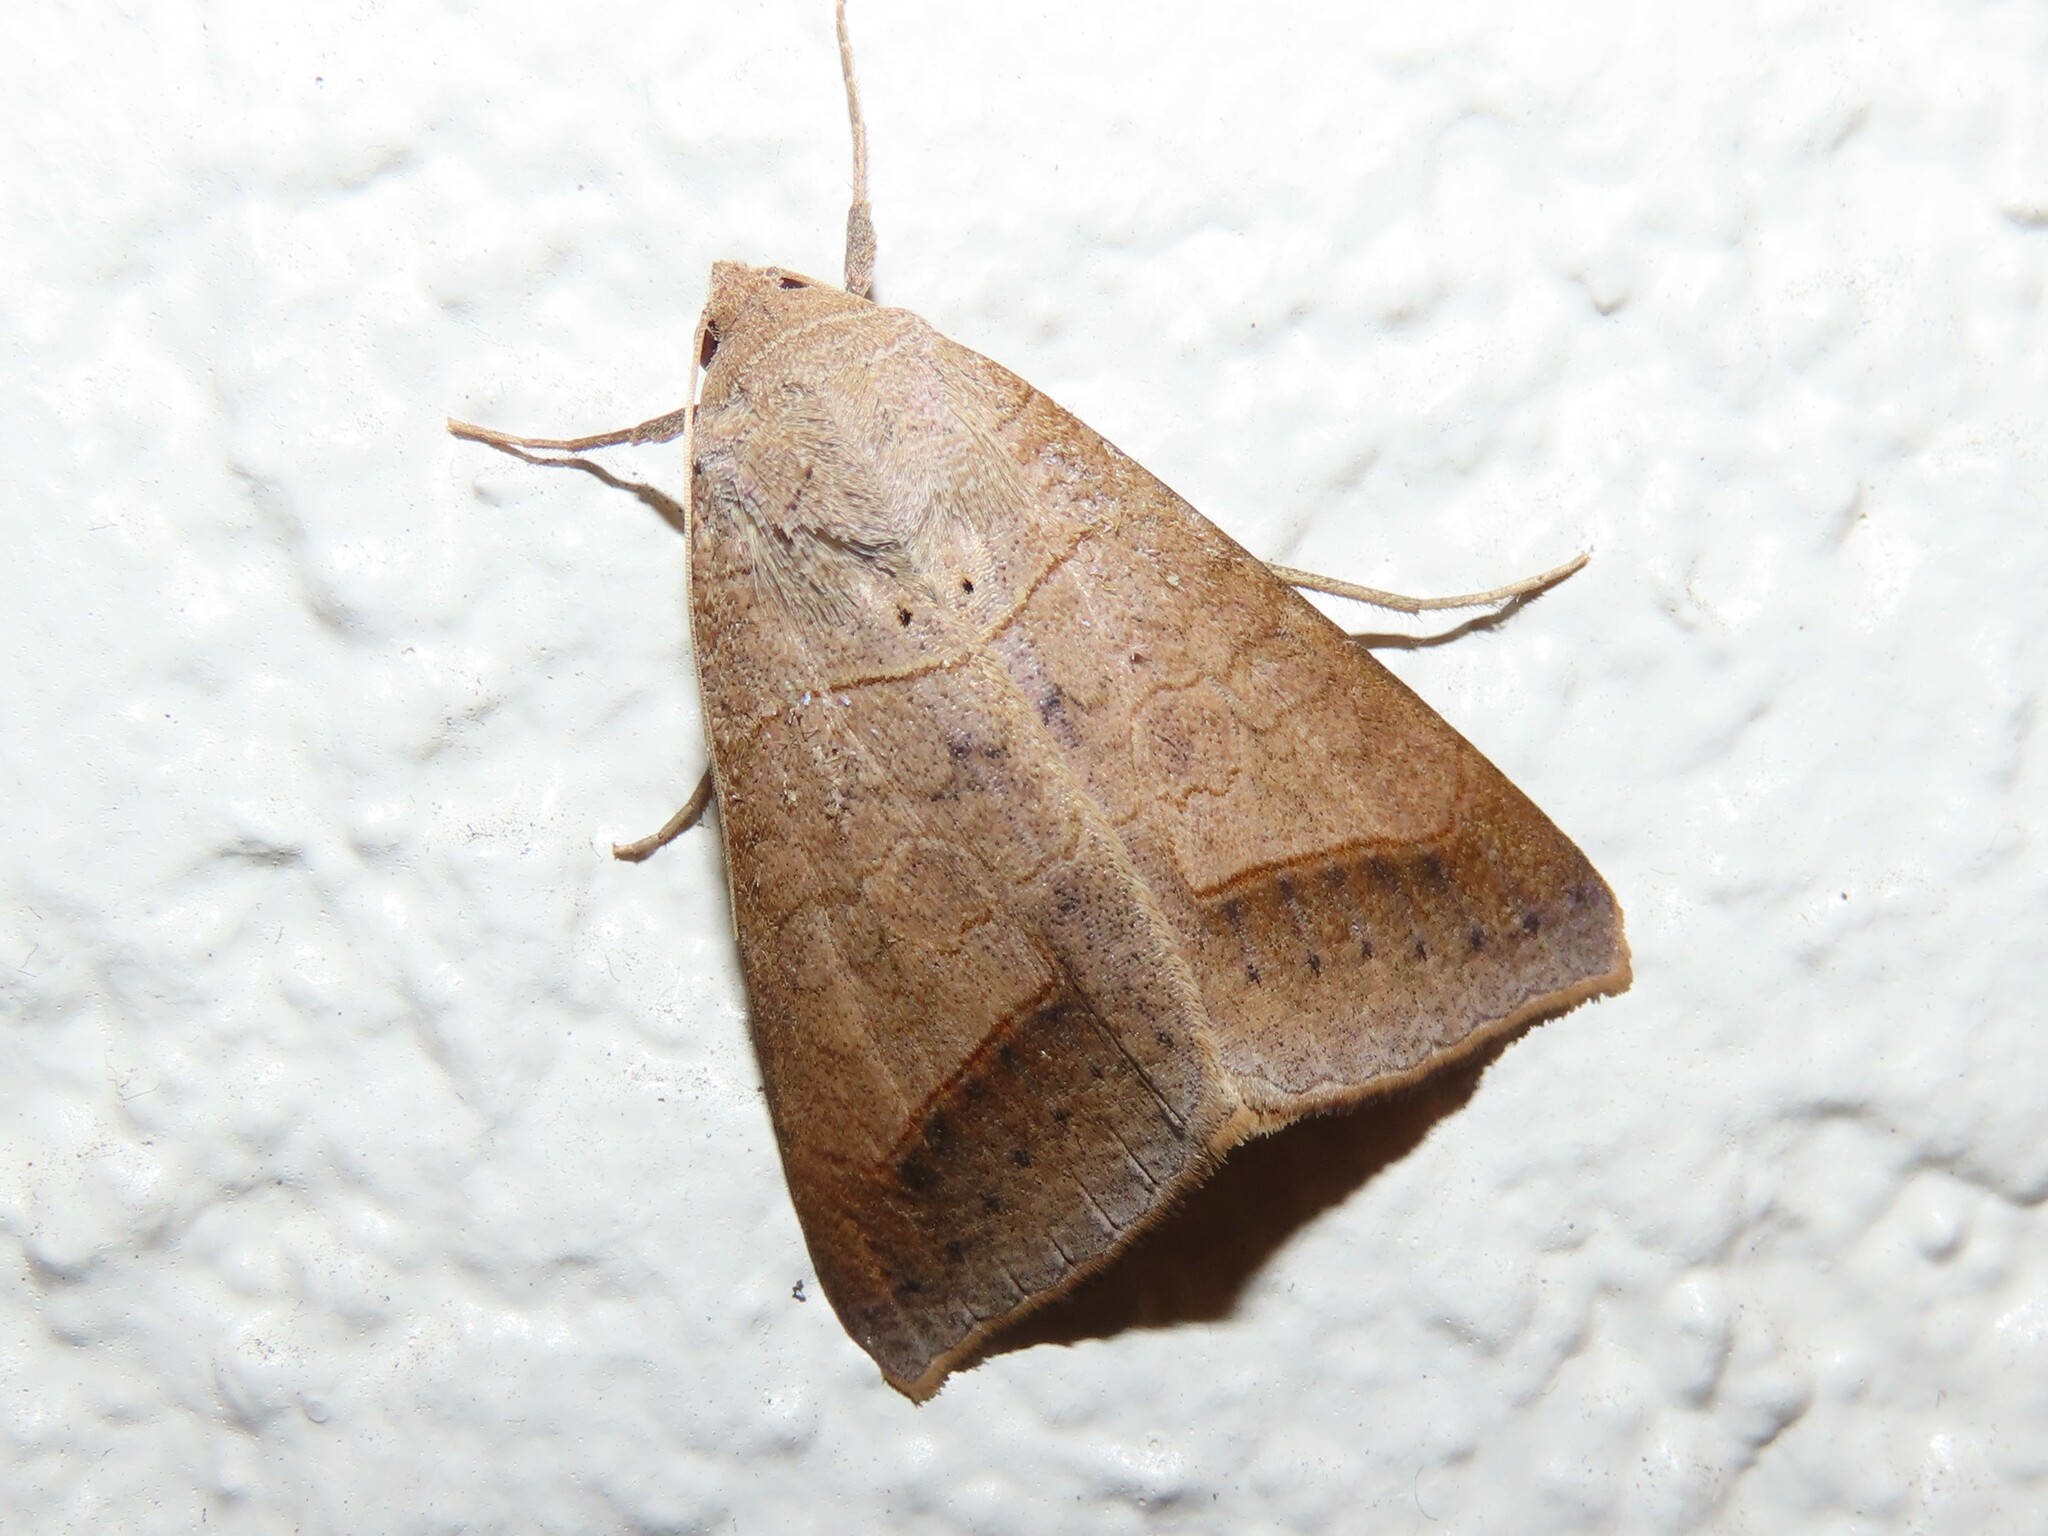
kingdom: Animalia
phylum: Arthropoda
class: Insecta
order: Lepidoptera
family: Erebidae
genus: Mocis
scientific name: Mocis marcida
